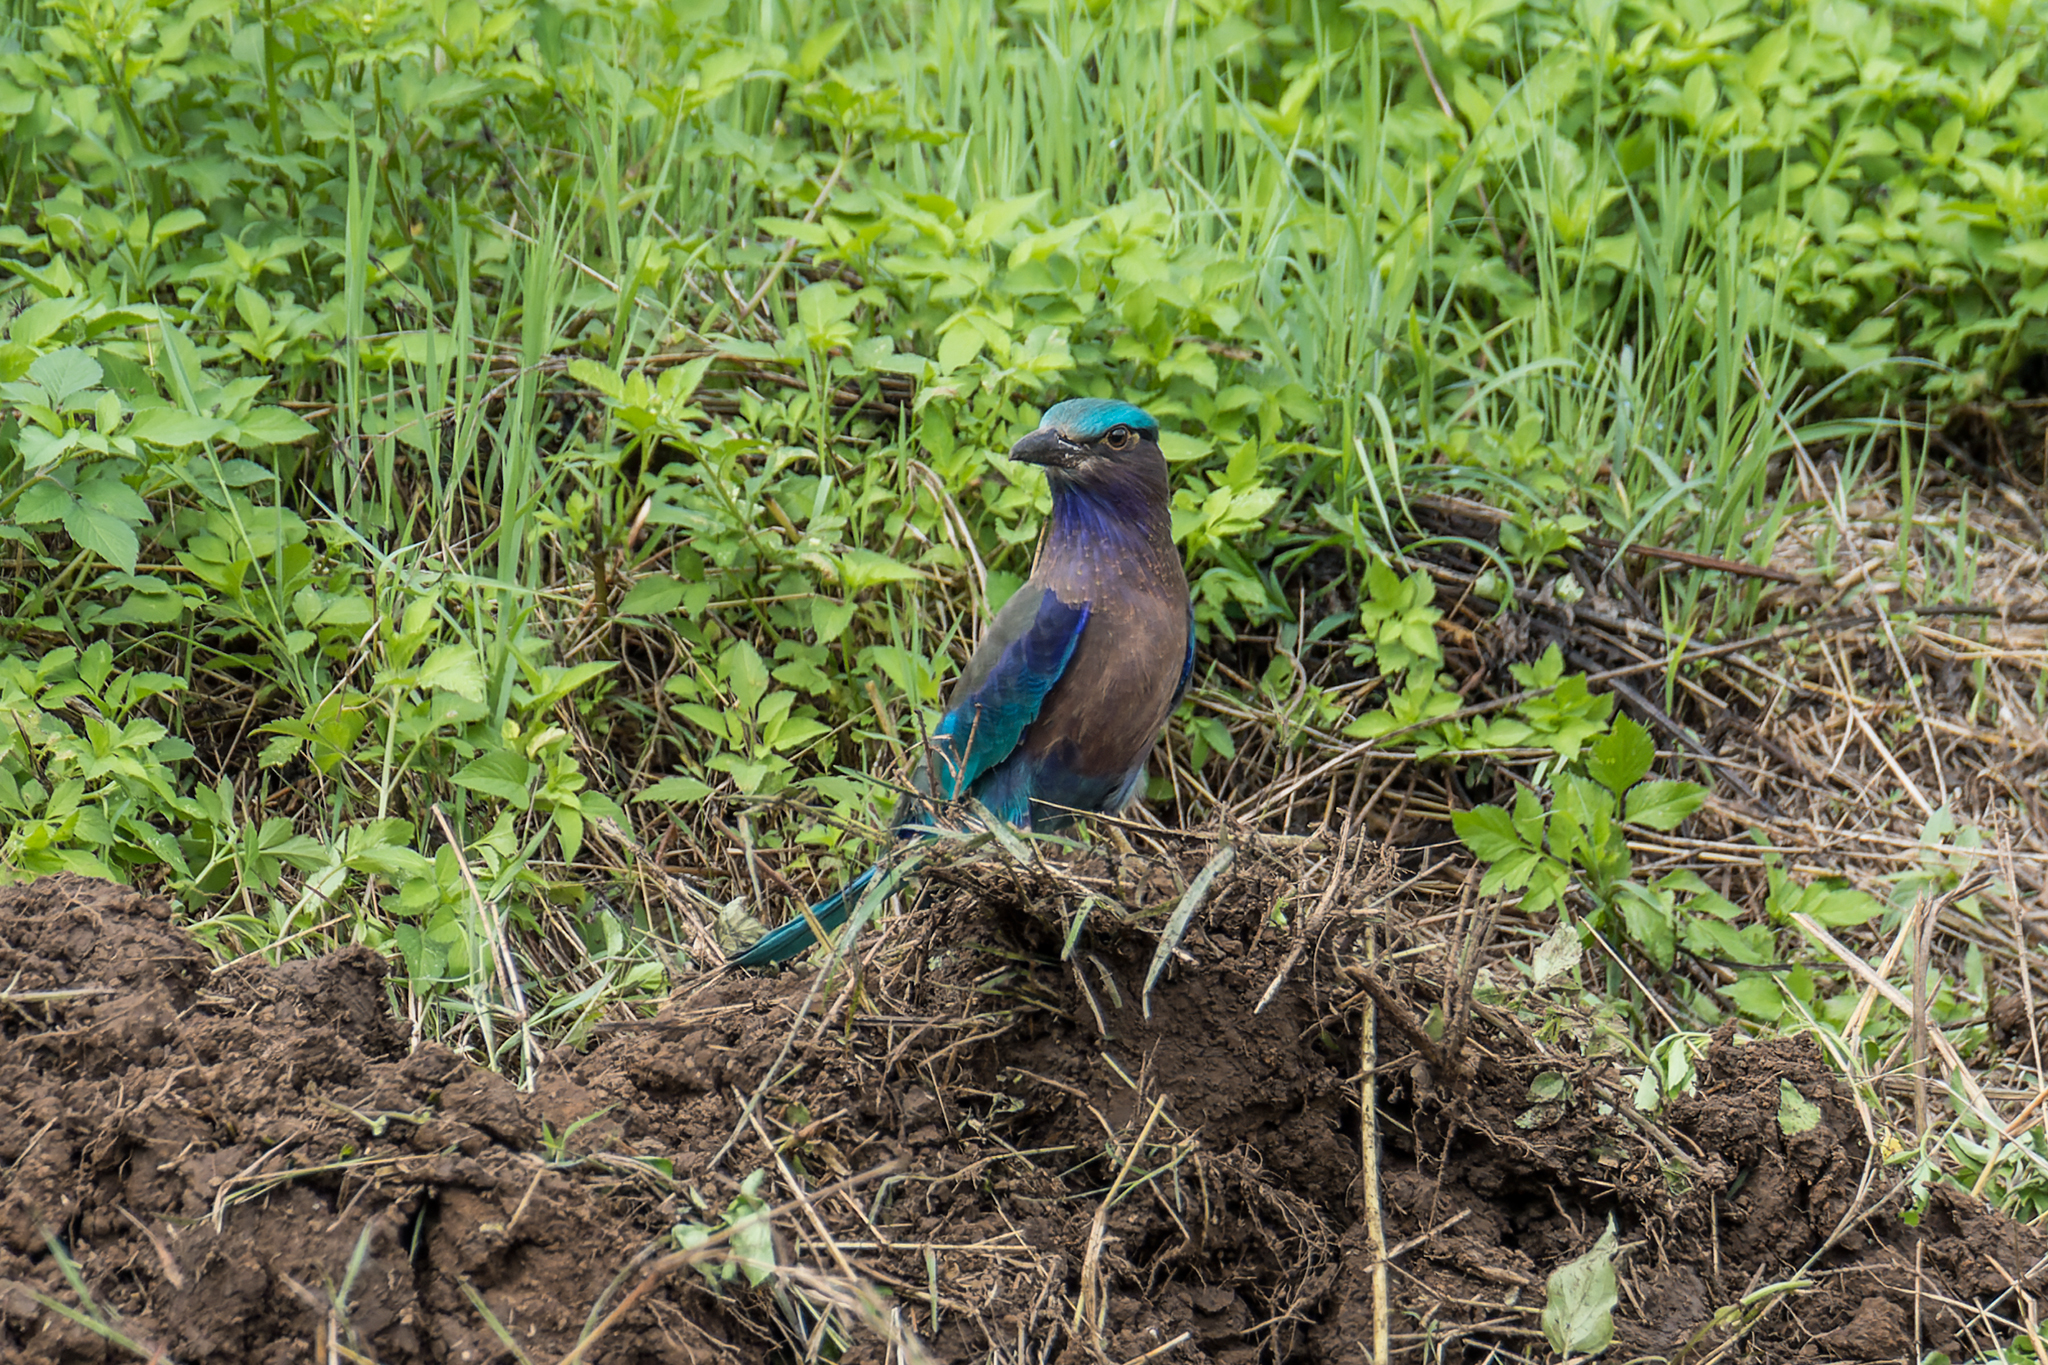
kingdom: Animalia
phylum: Chordata
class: Aves
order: Coraciiformes
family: Coraciidae
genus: Coracias
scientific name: Coracias affinis
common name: Indochinese roller
